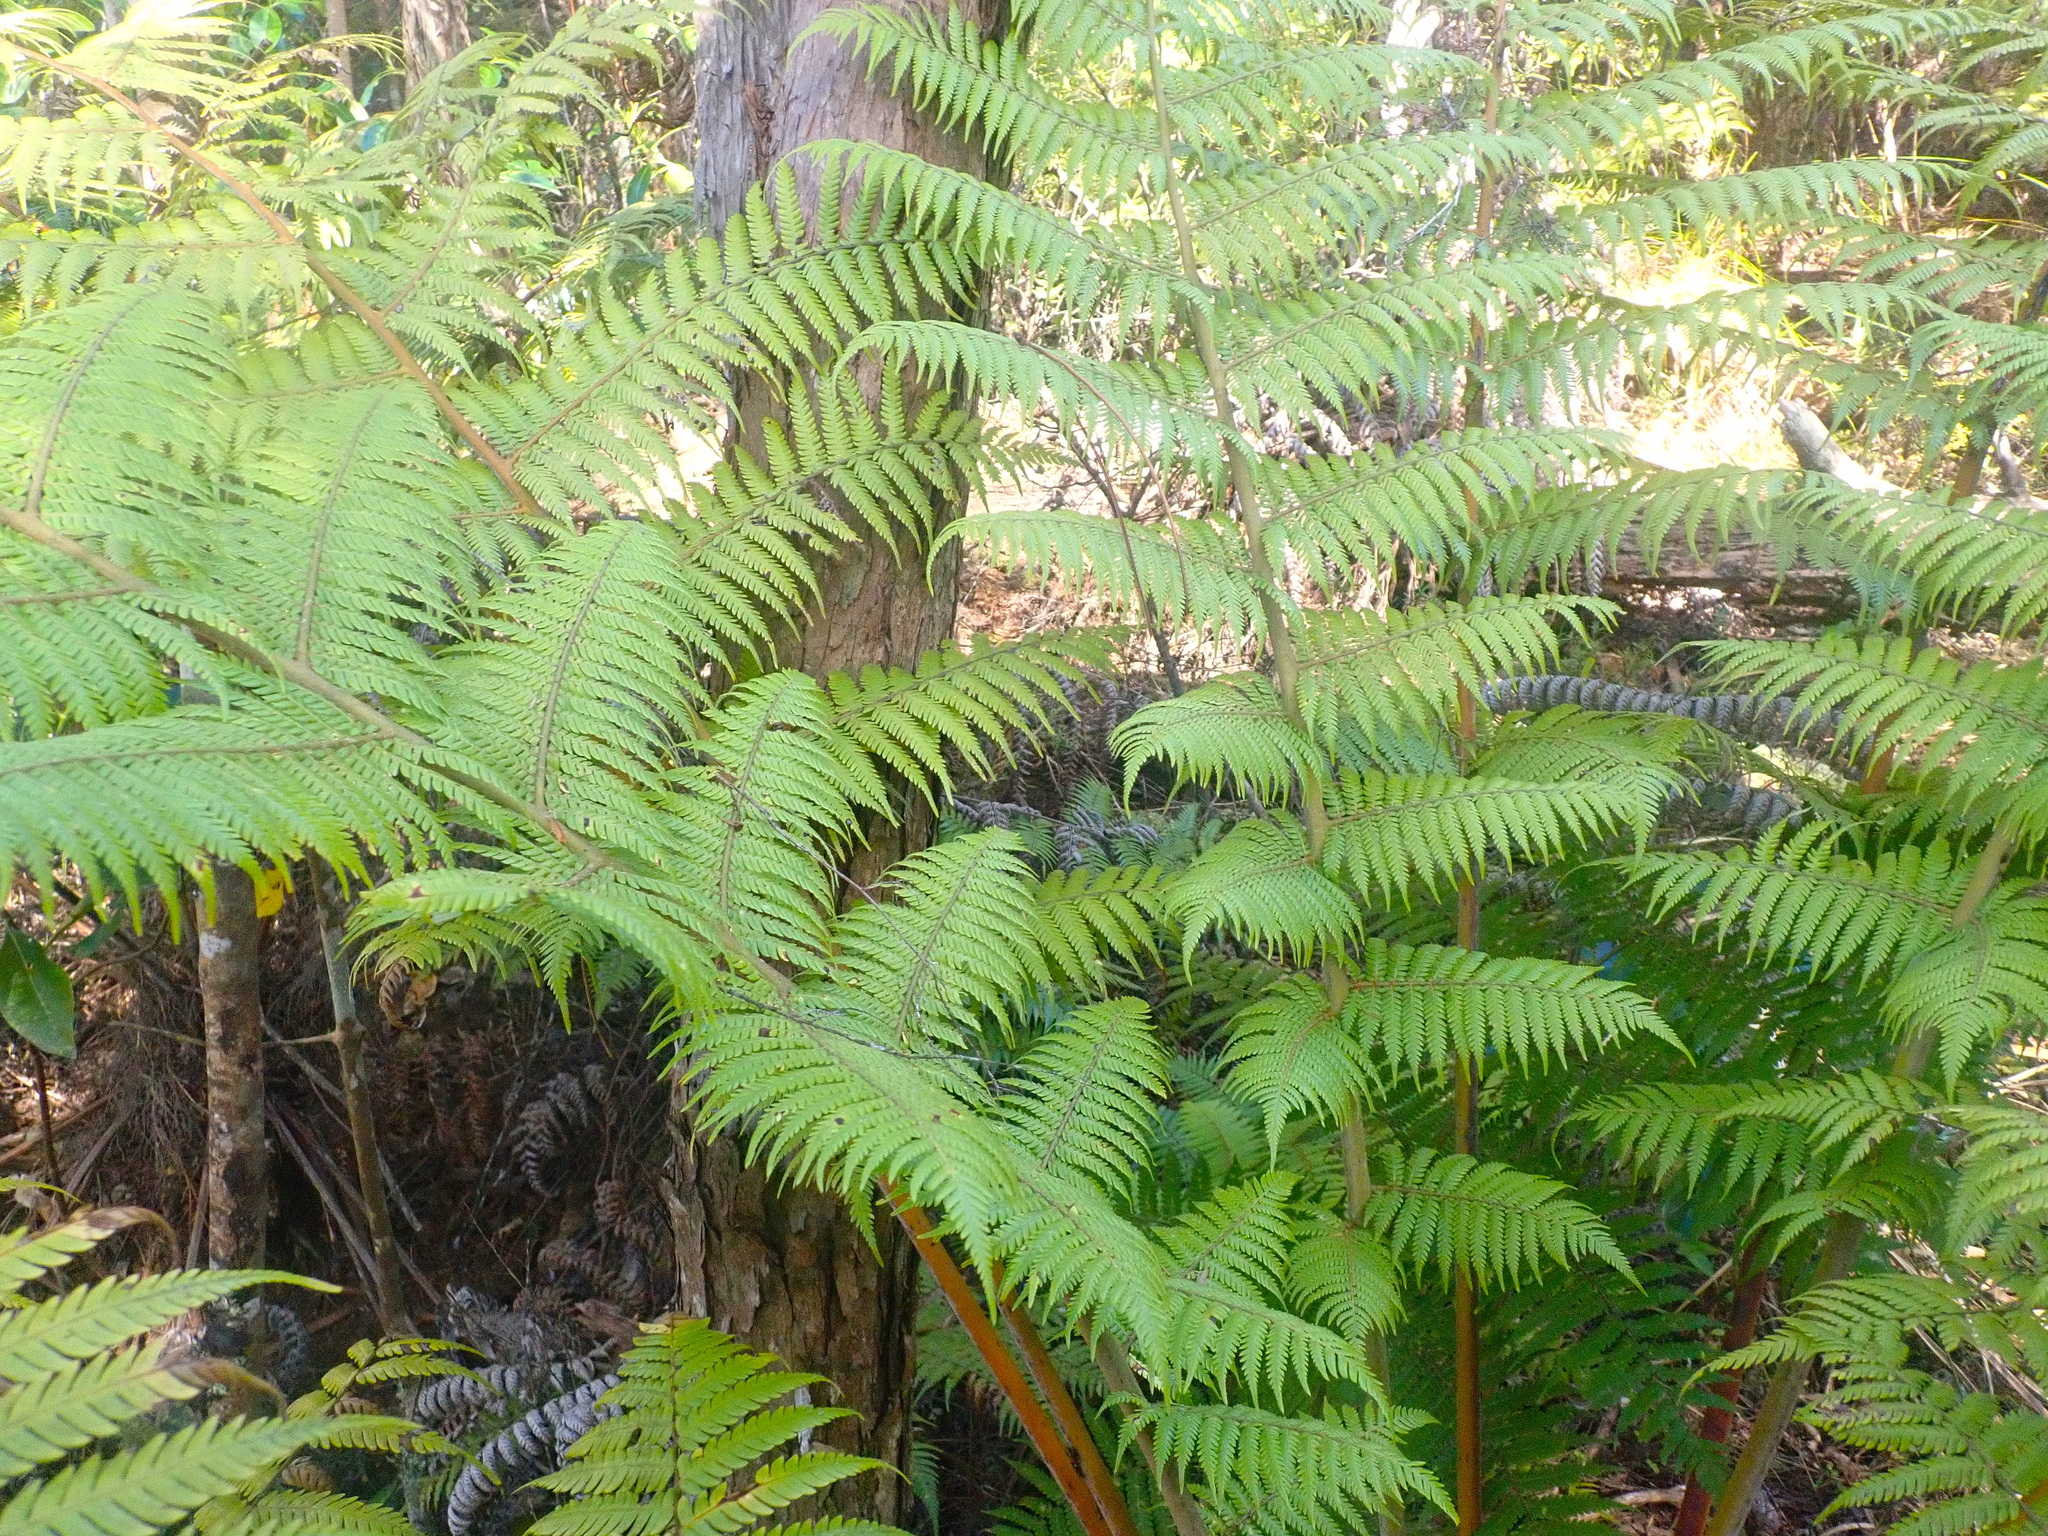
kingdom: Plantae
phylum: Tracheophyta
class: Polypodiopsida
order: Cyatheales
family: Cyatheaceae
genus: Alsophila
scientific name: Alsophila dealbata
